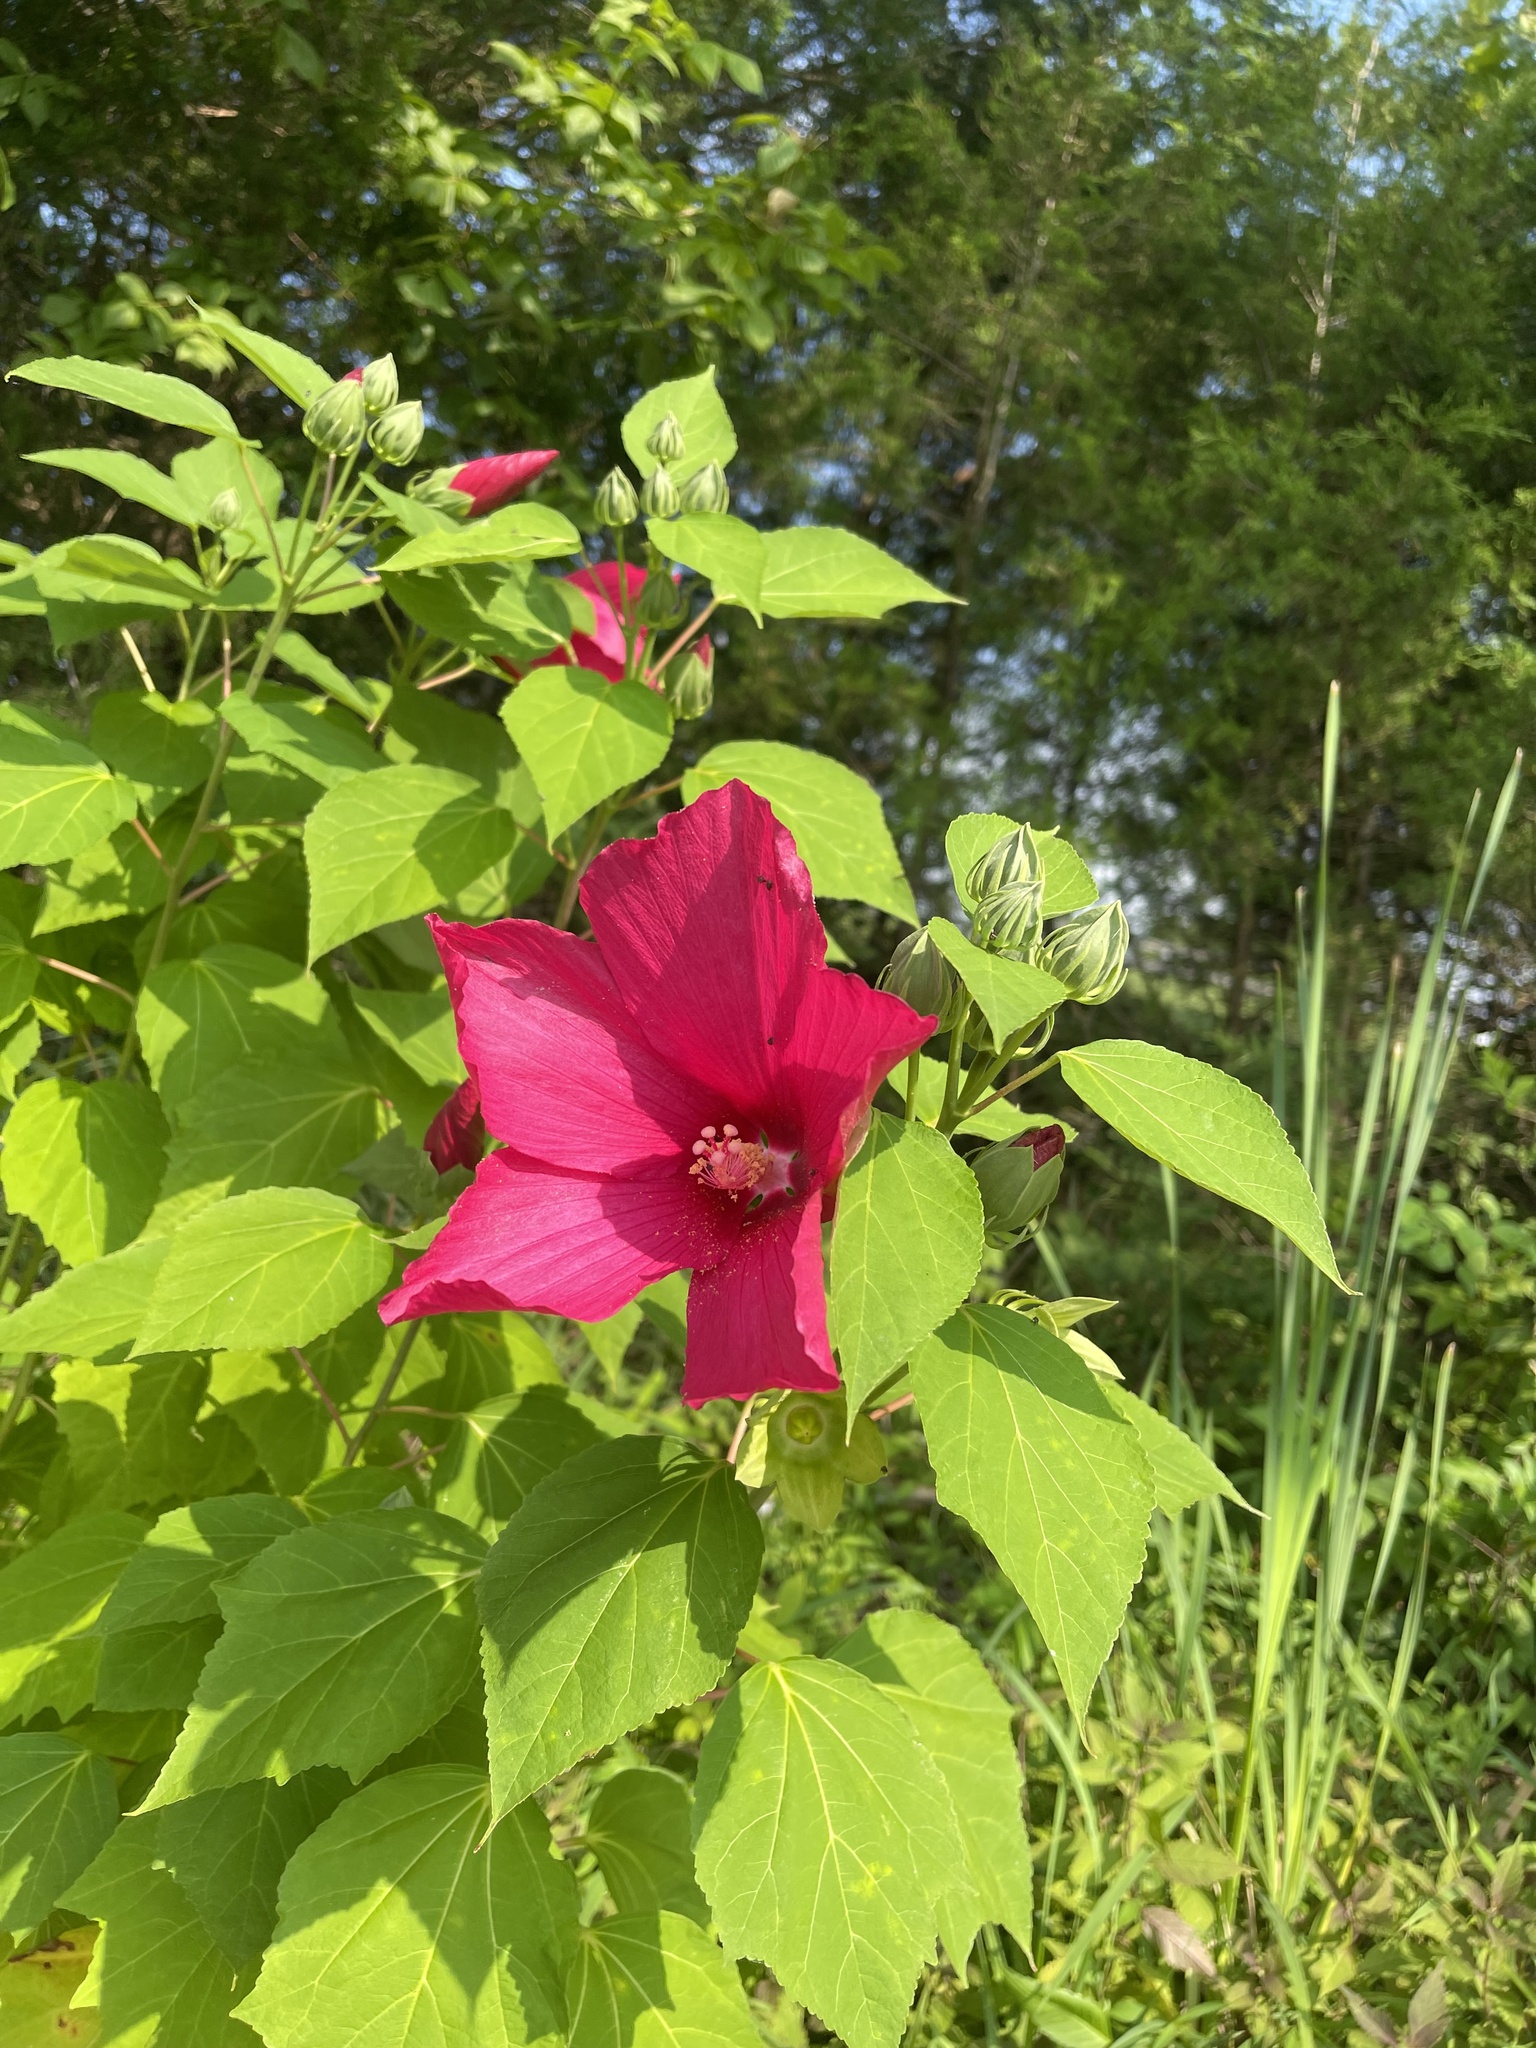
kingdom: Plantae
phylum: Tracheophyta
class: Magnoliopsida
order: Malvales
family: Malvaceae
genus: Hibiscus
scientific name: Hibiscus moscheutos
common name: Common rose-mallow
